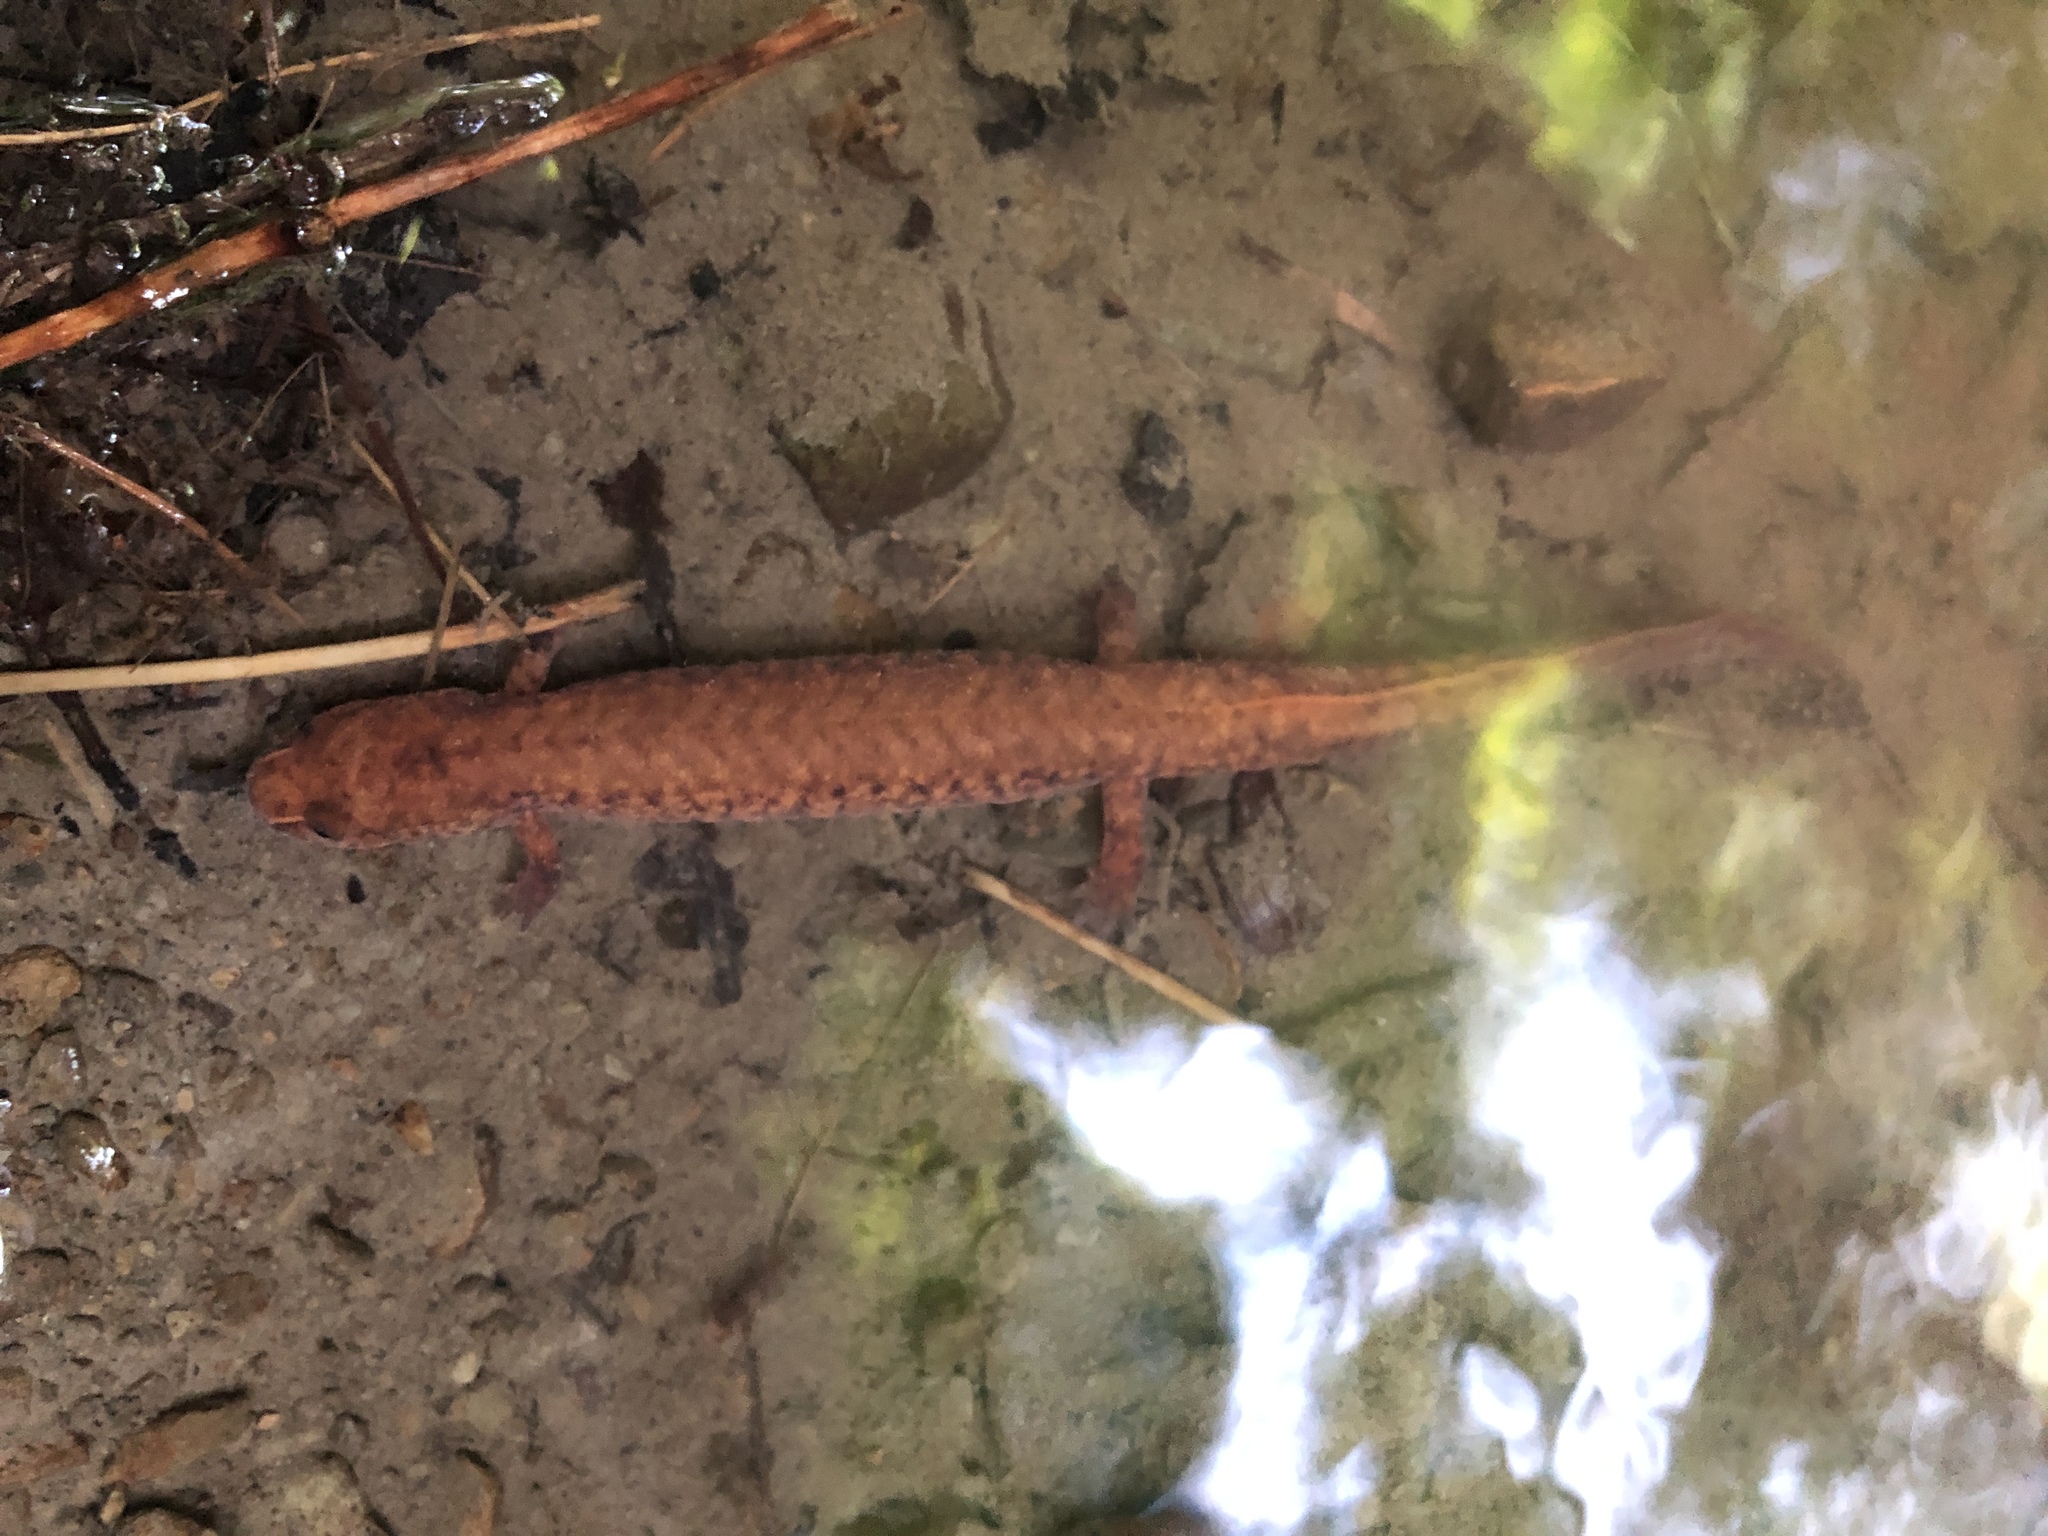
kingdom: Animalia
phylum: Chordata
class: Amphibia
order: Caudata
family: Plethodontidae
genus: Gyrinophilus
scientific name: Gyrinophilus porphyriticus
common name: Spring salamander
